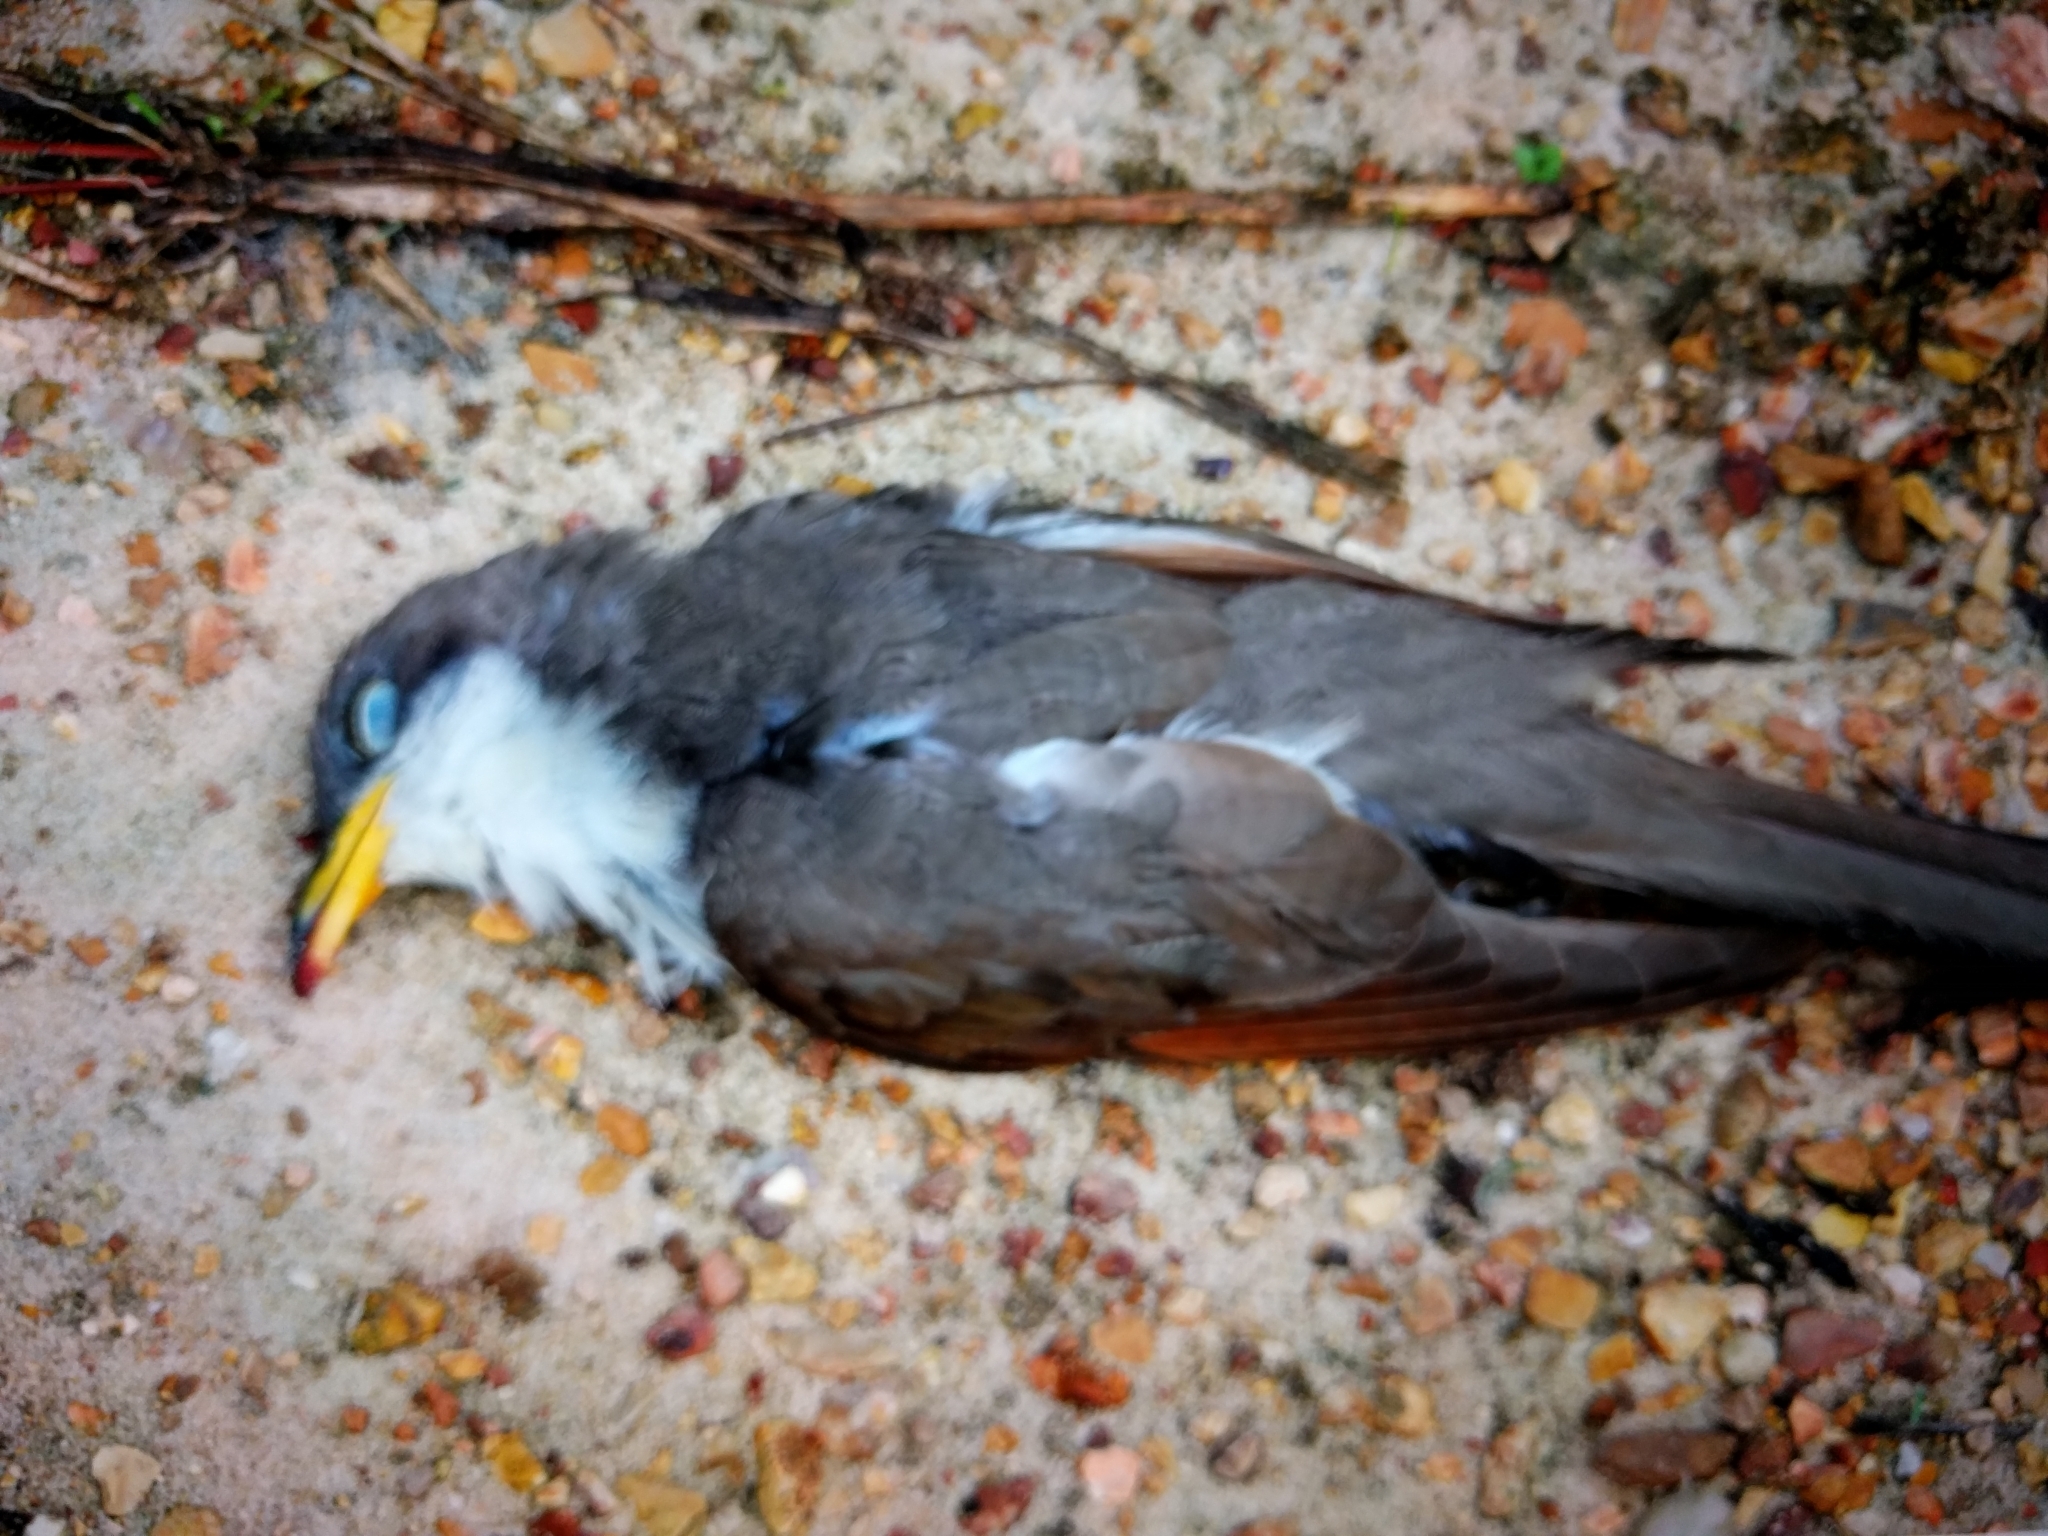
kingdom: Animalia
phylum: Chordata
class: Aves
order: Cuculiformes
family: Cuculidae
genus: Coccyzus
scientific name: Coccyzus americanus
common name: Yellow-billed cuckoo
